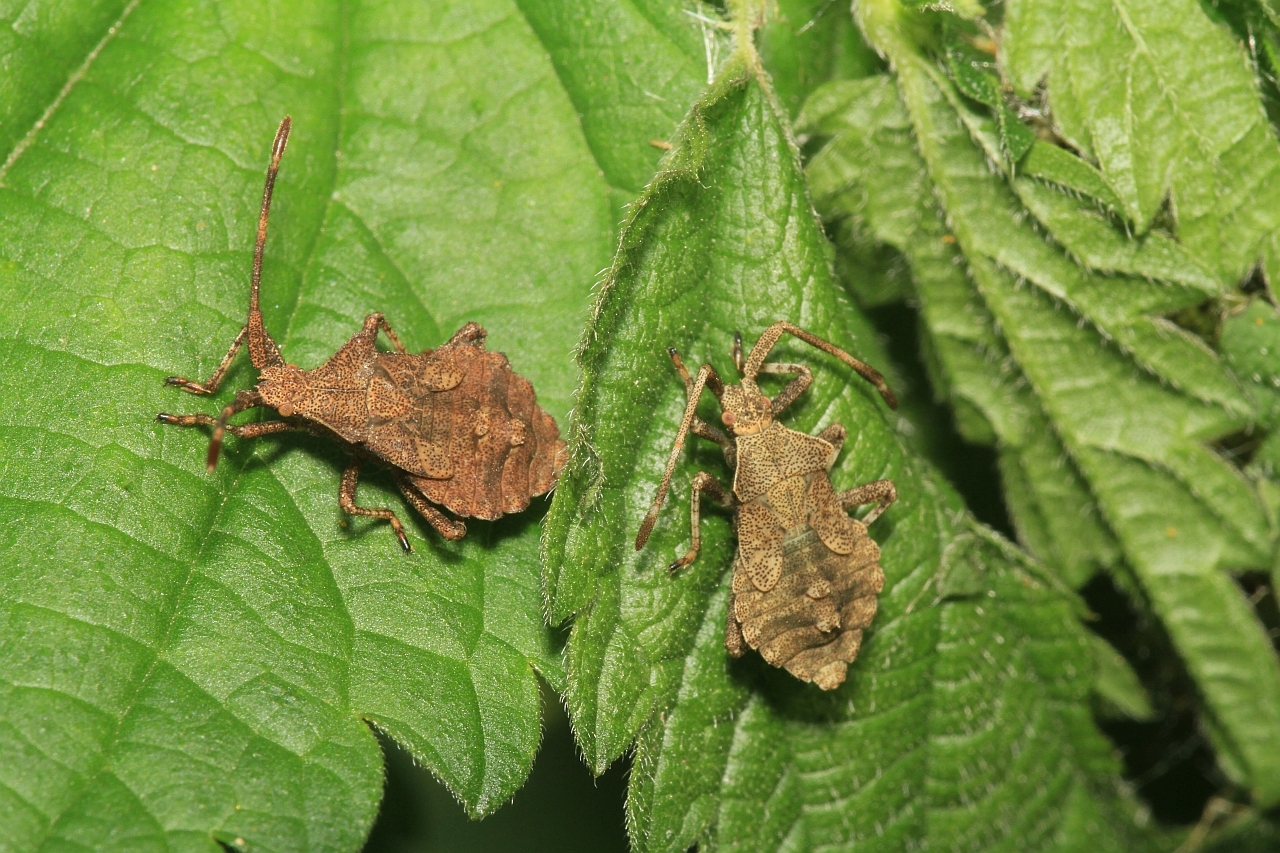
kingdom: Animalia
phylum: Arthropoda
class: Insecta
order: Hemiptera
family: Coreidae
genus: Coreus
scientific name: Coreus marginatus
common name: Dock bug
